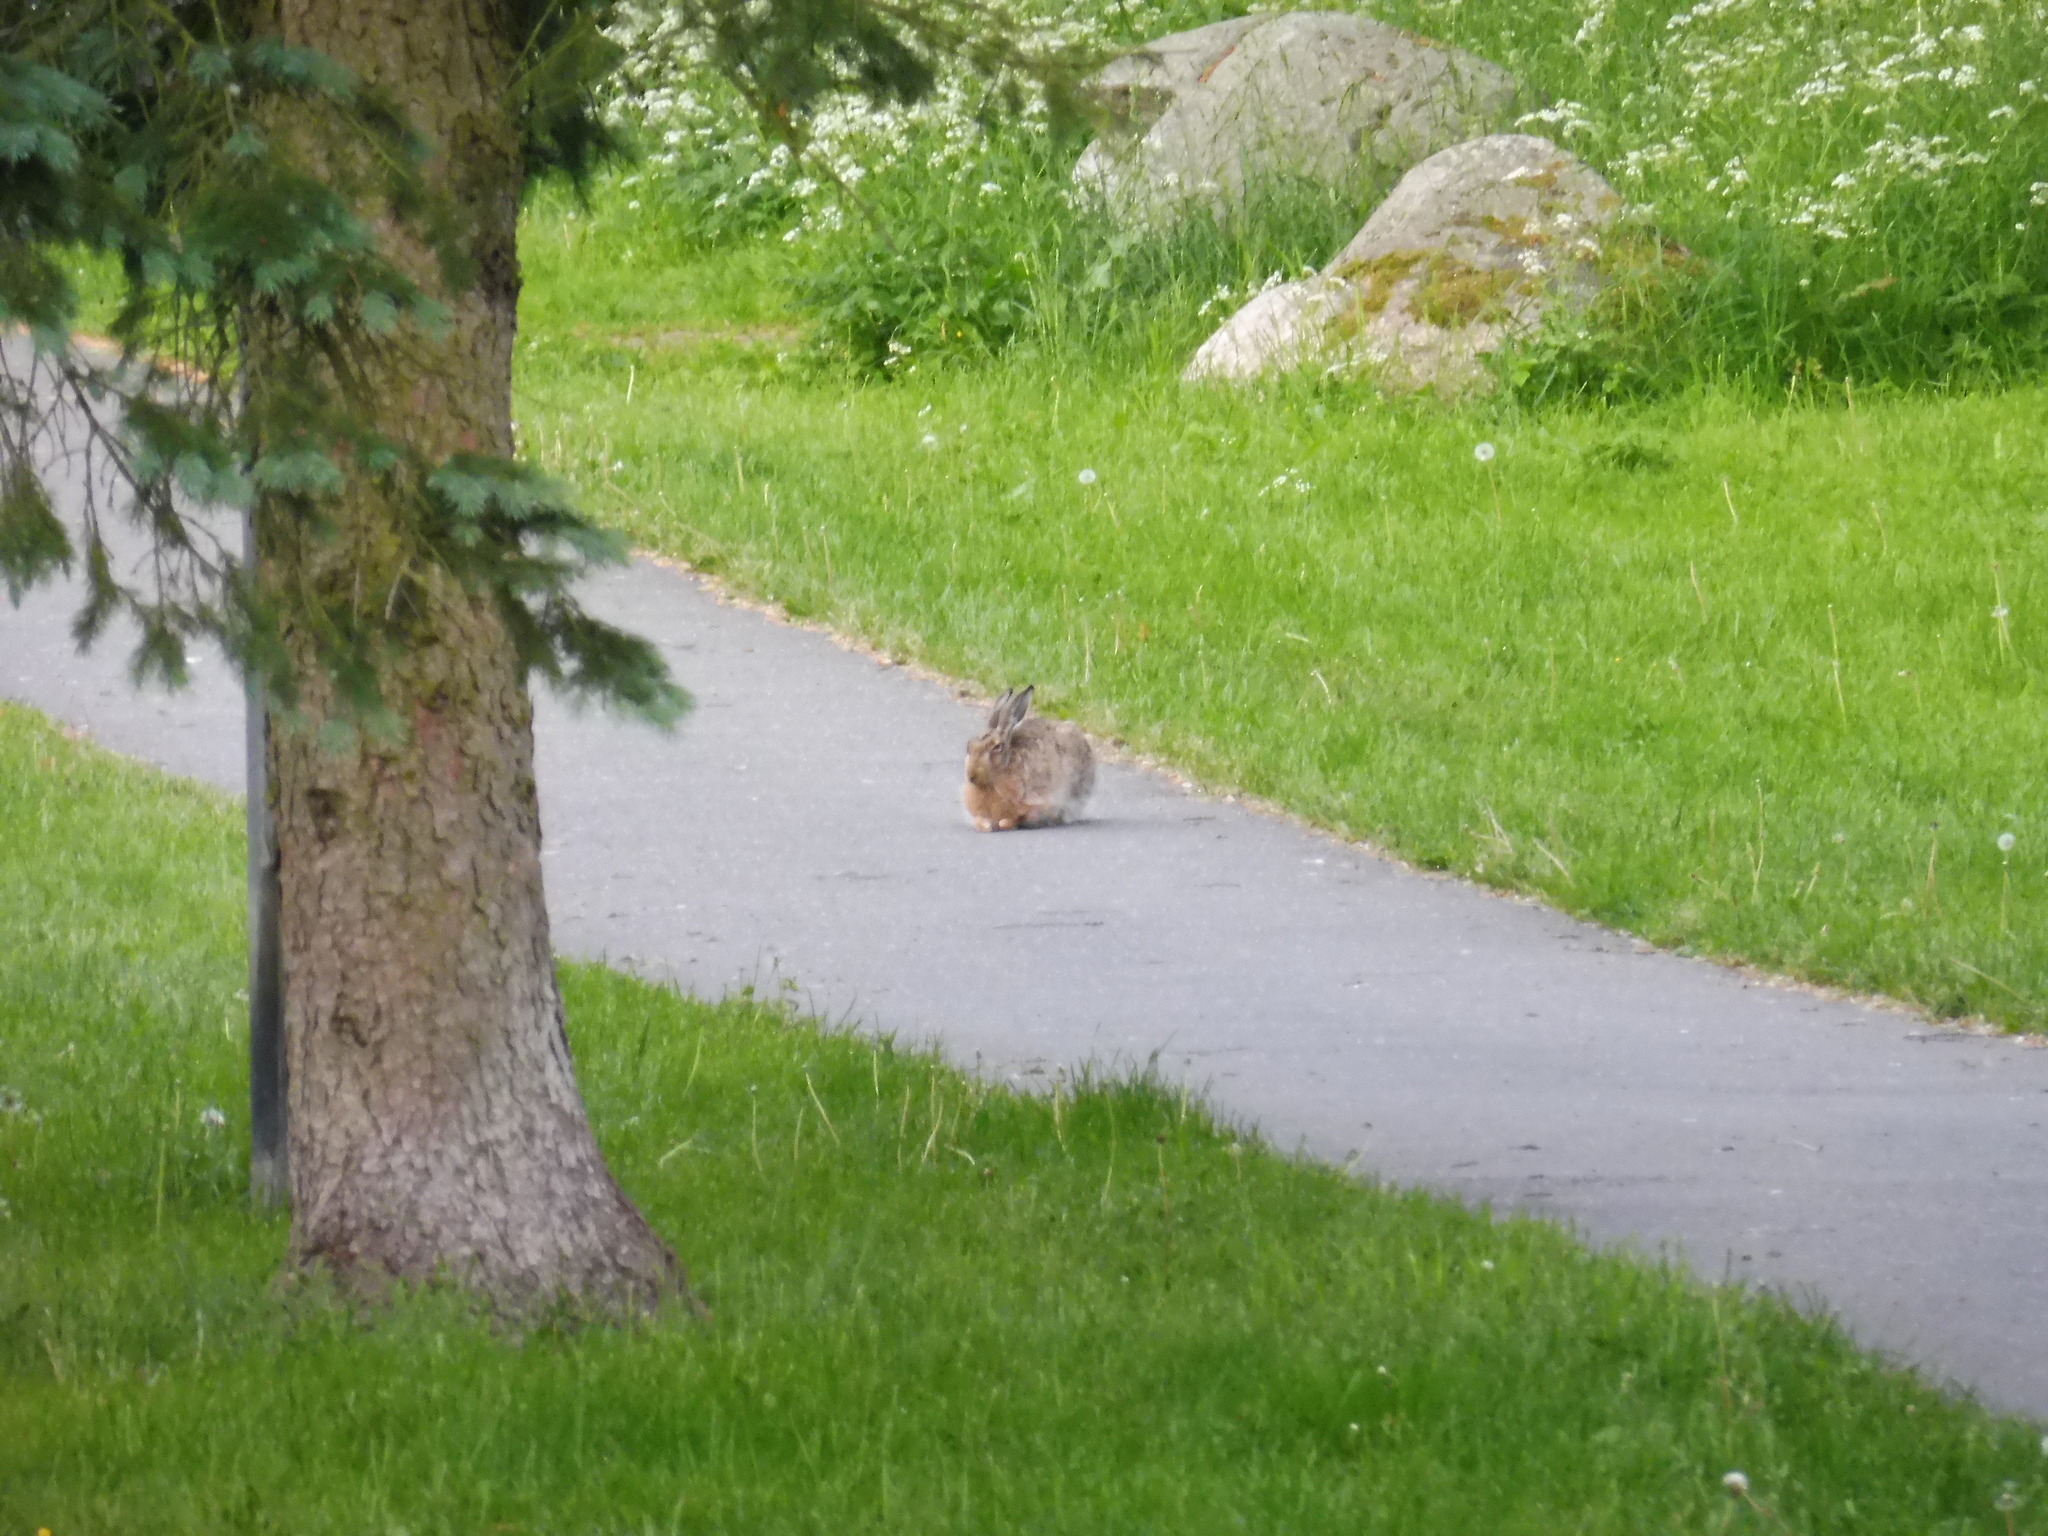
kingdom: Animalia
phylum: Chordata
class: Mammalia
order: Lagomorpha
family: Leporidae
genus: Lepus
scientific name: Lepus europaeus
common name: European hare
